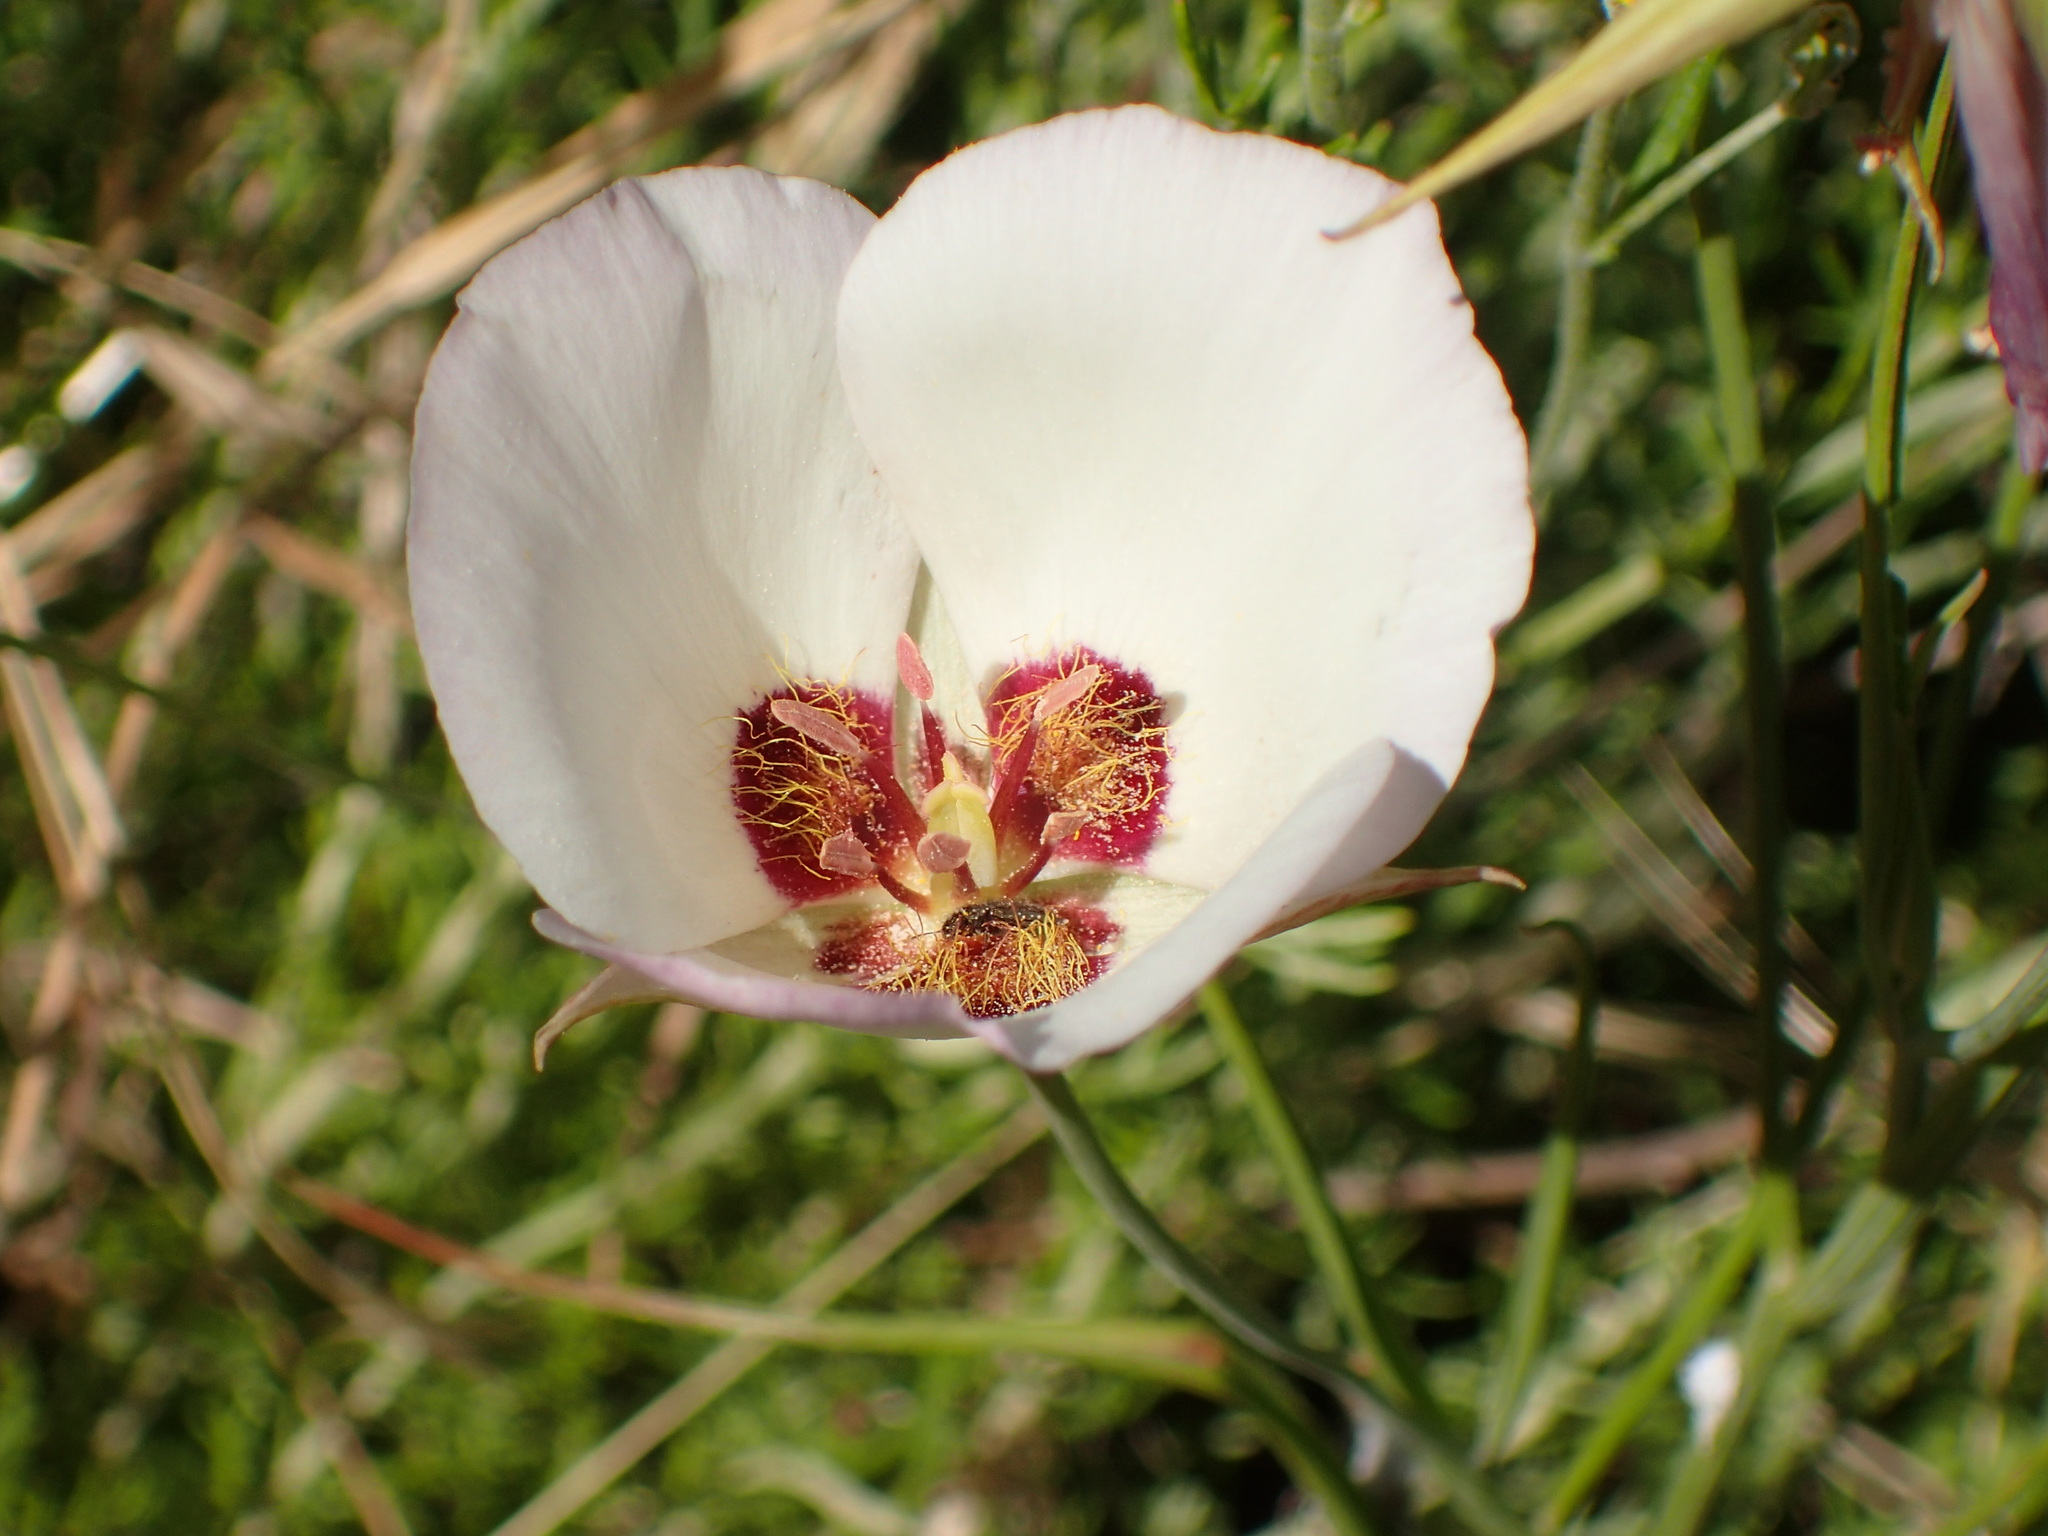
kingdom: Plantae
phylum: Tracheophyta
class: Liliopsida
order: Liliales
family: Liliaceae
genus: Calochortus
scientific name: Calochortus catalinae
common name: Catalina mariposa-lily
